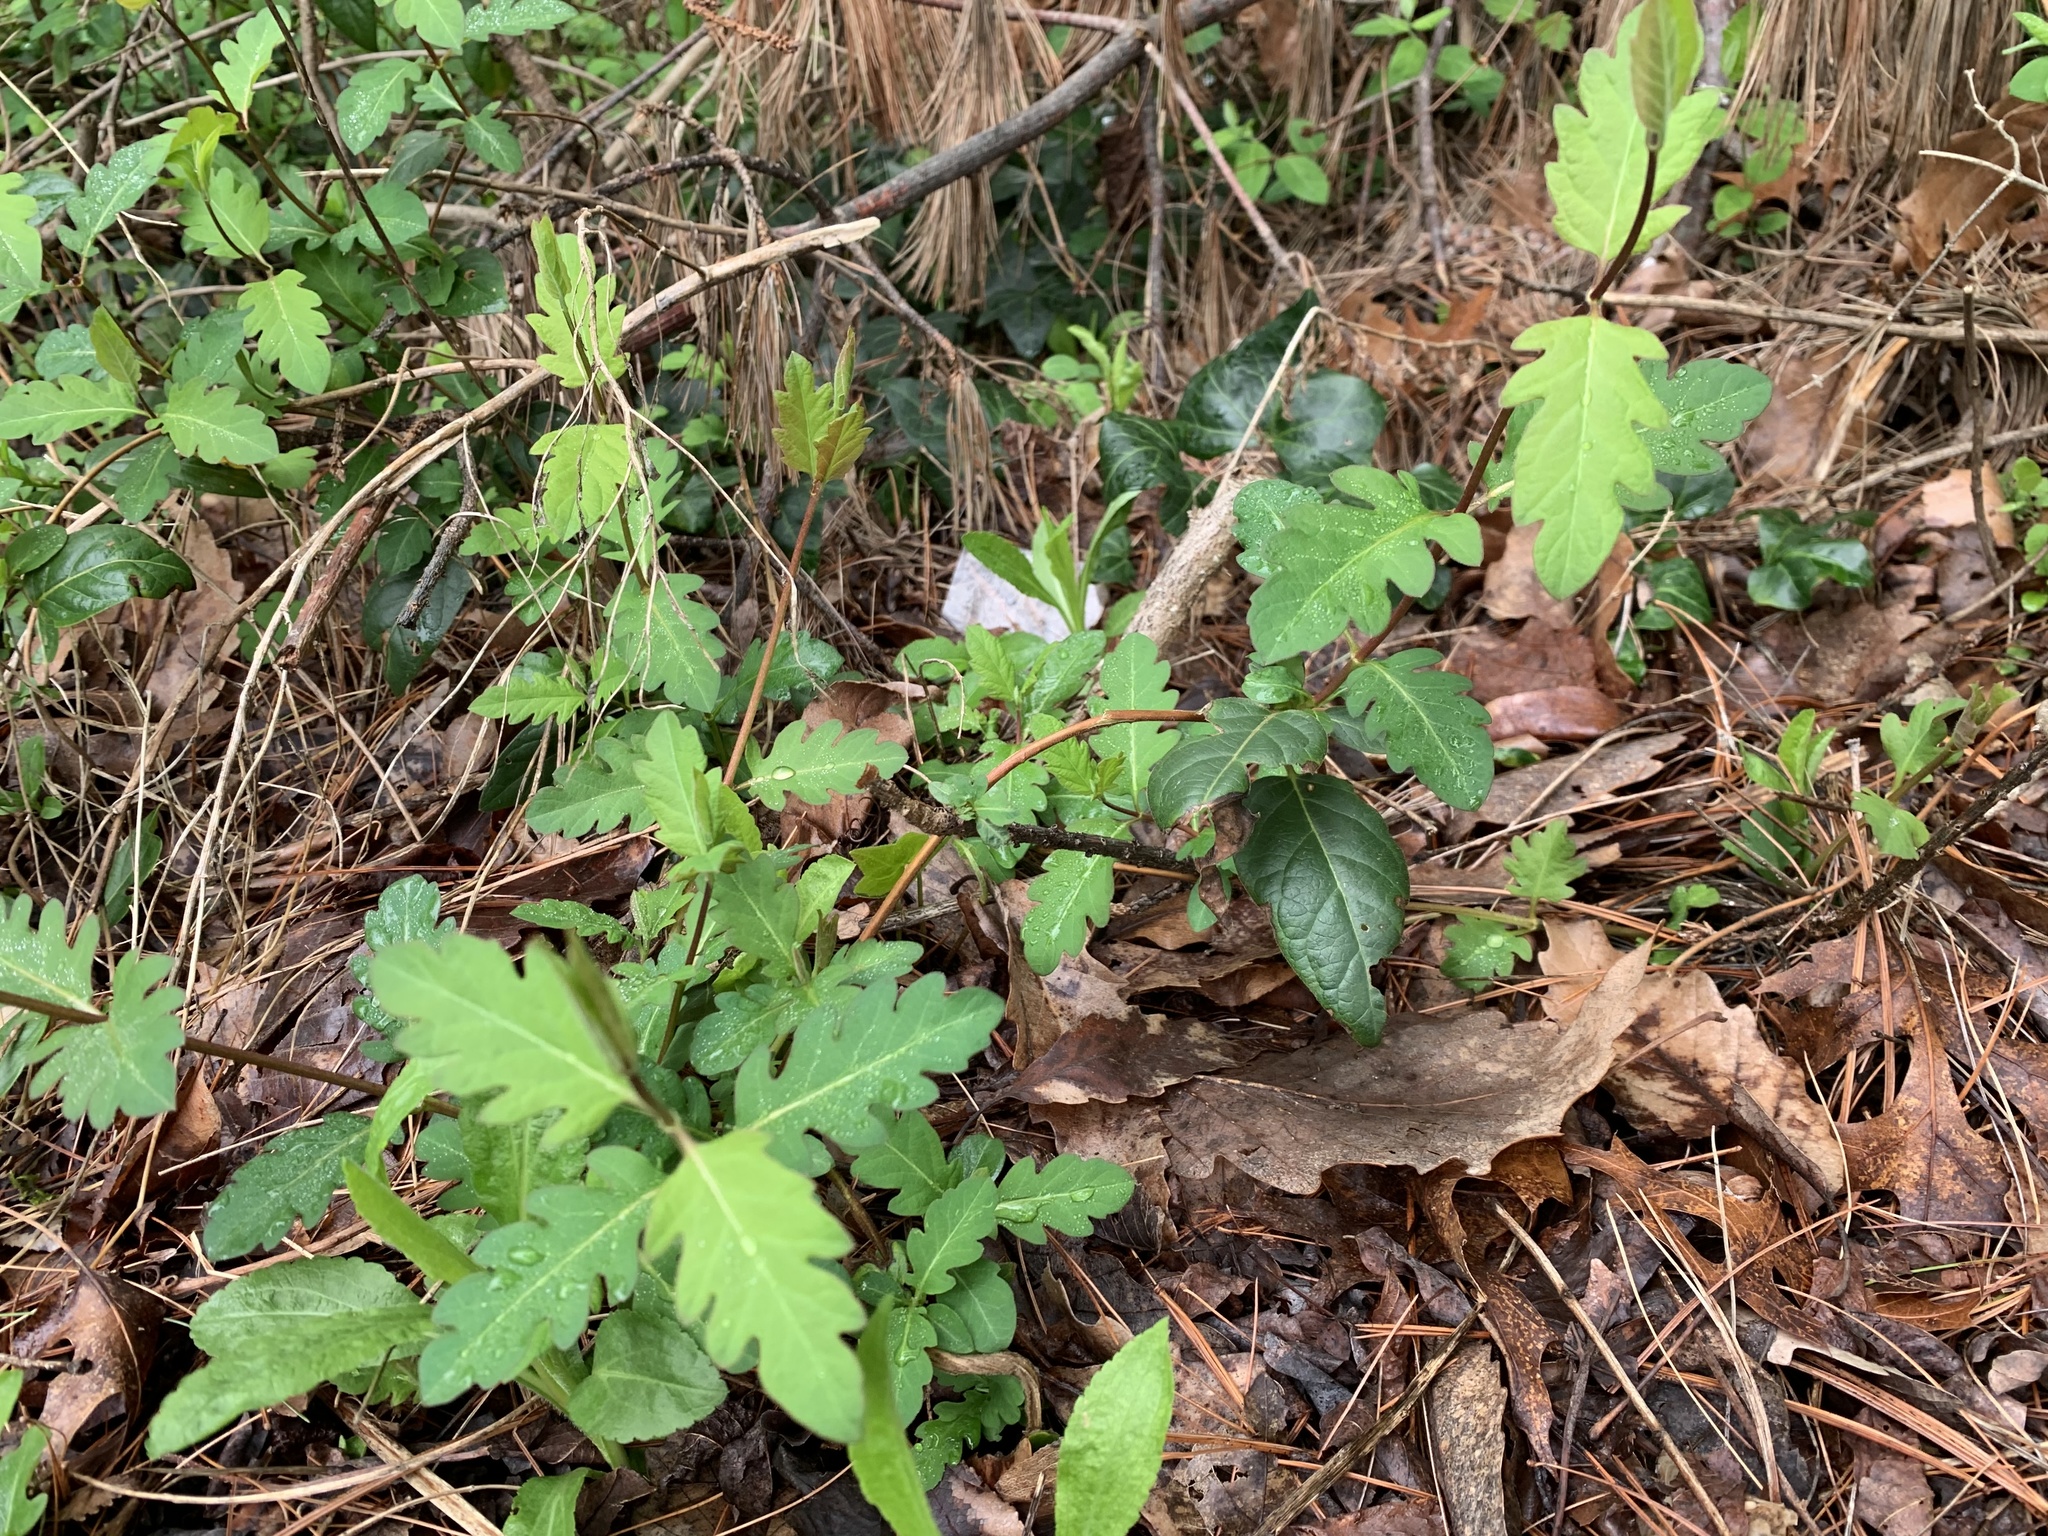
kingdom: Plantae
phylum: Tracheophyta
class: Magnoliopsida
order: Dipsacales
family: Caprifoliaceae
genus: Lonicera
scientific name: Lonicera japonica
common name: Japanese honeysuckle
